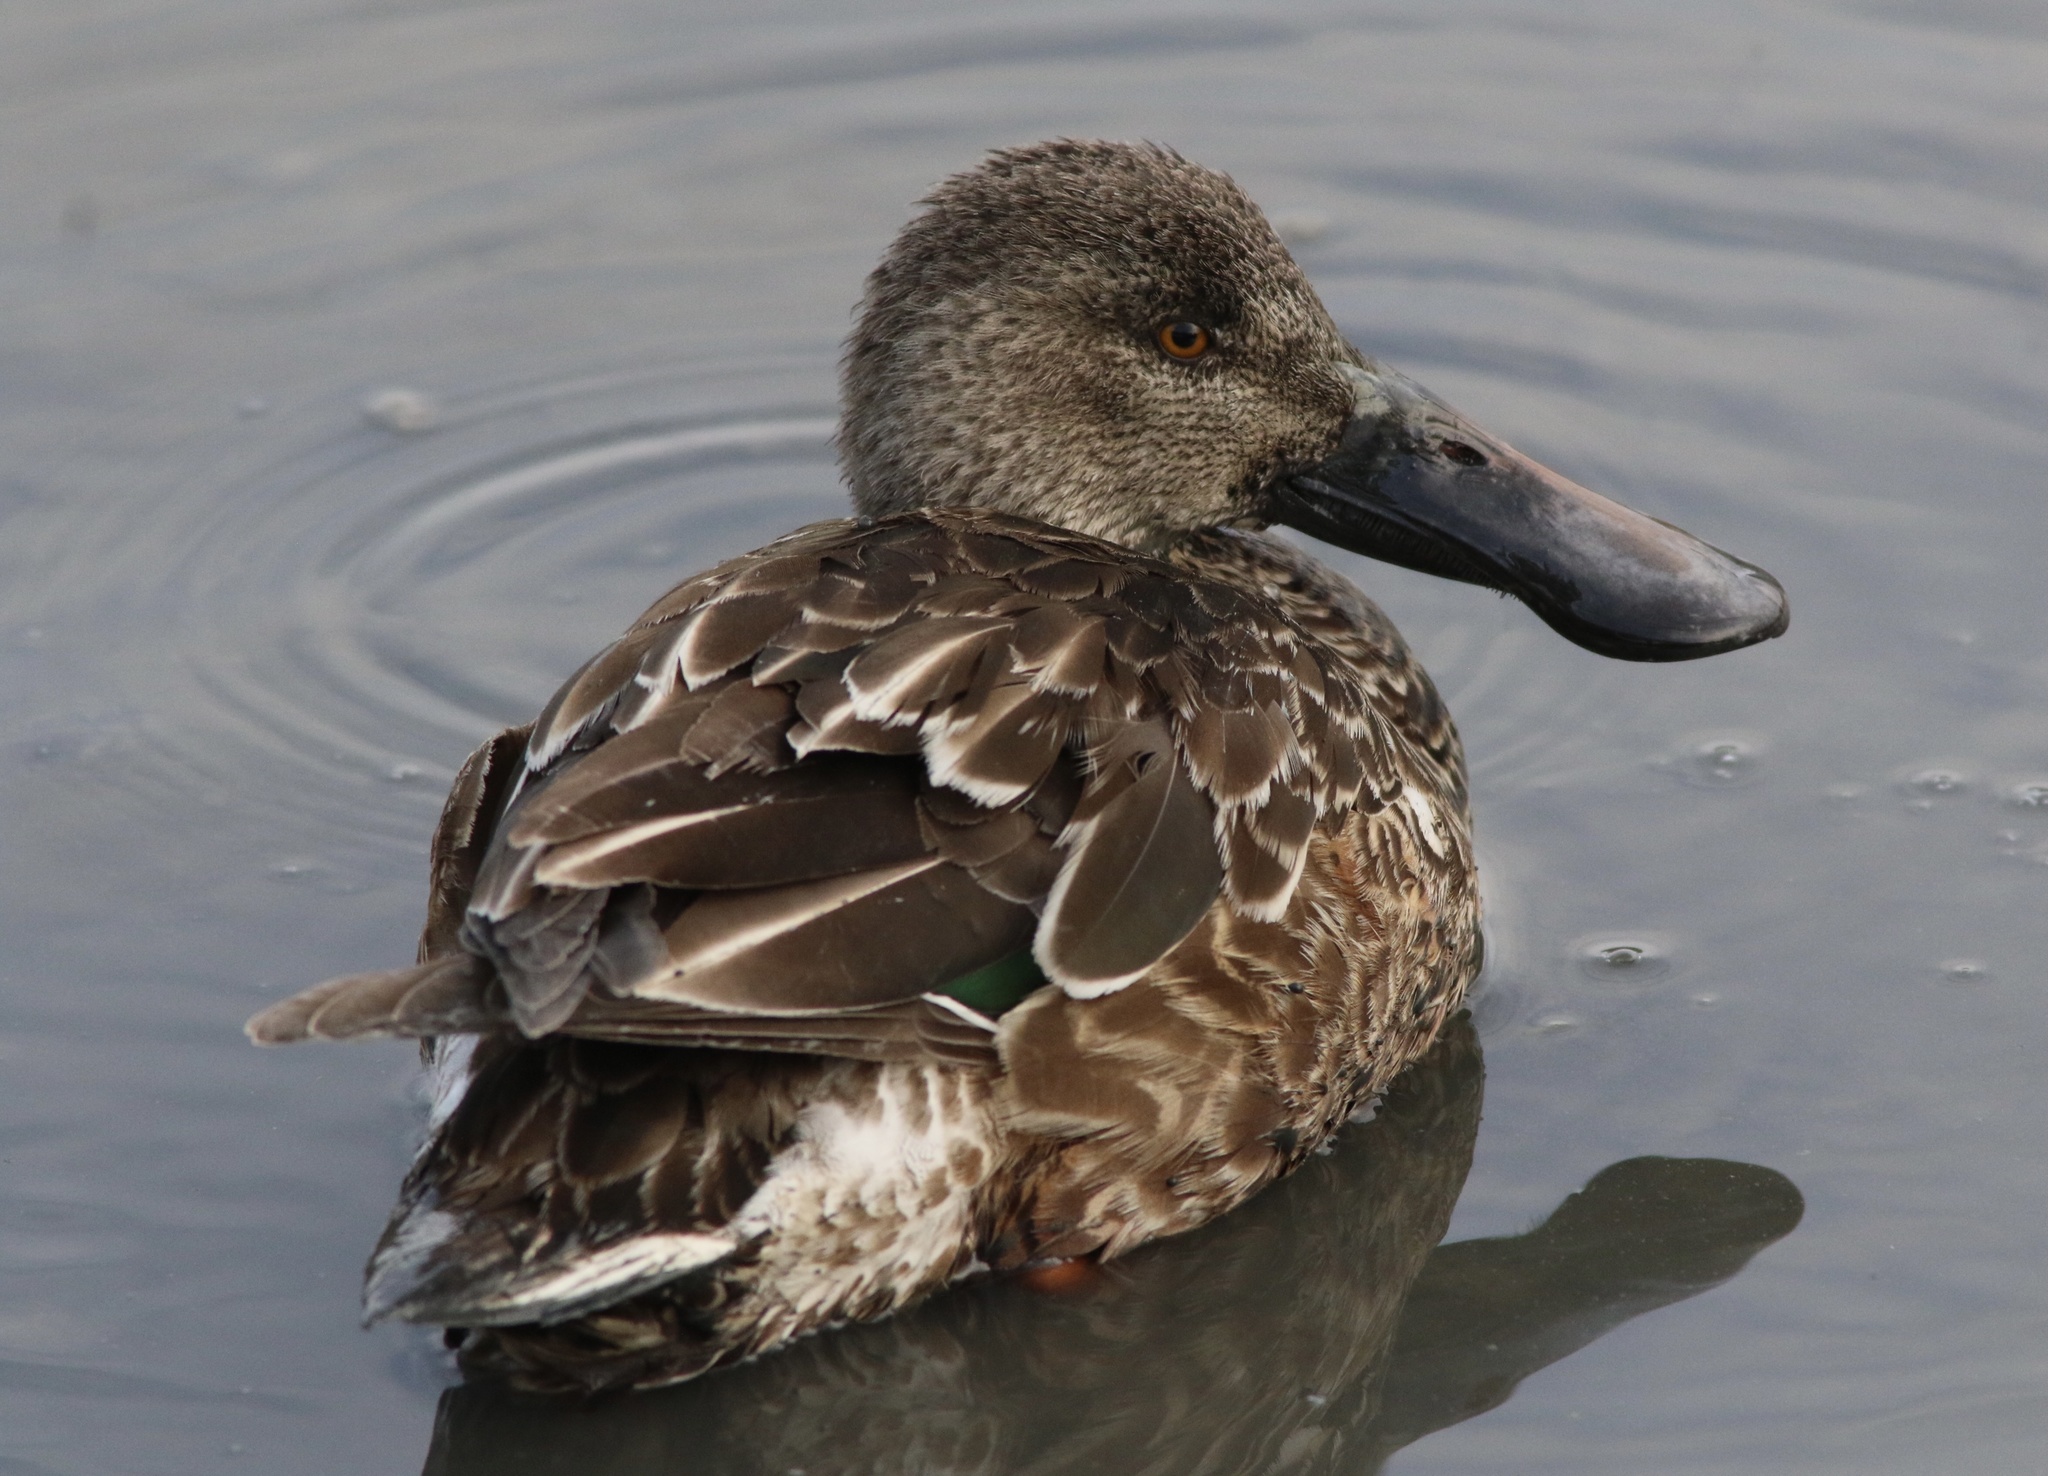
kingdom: Animalia
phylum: Chordata
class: Aves
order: Anseriformes
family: Anatidae
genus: Spatula
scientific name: Spatula clypeata
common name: Northern shoveler
